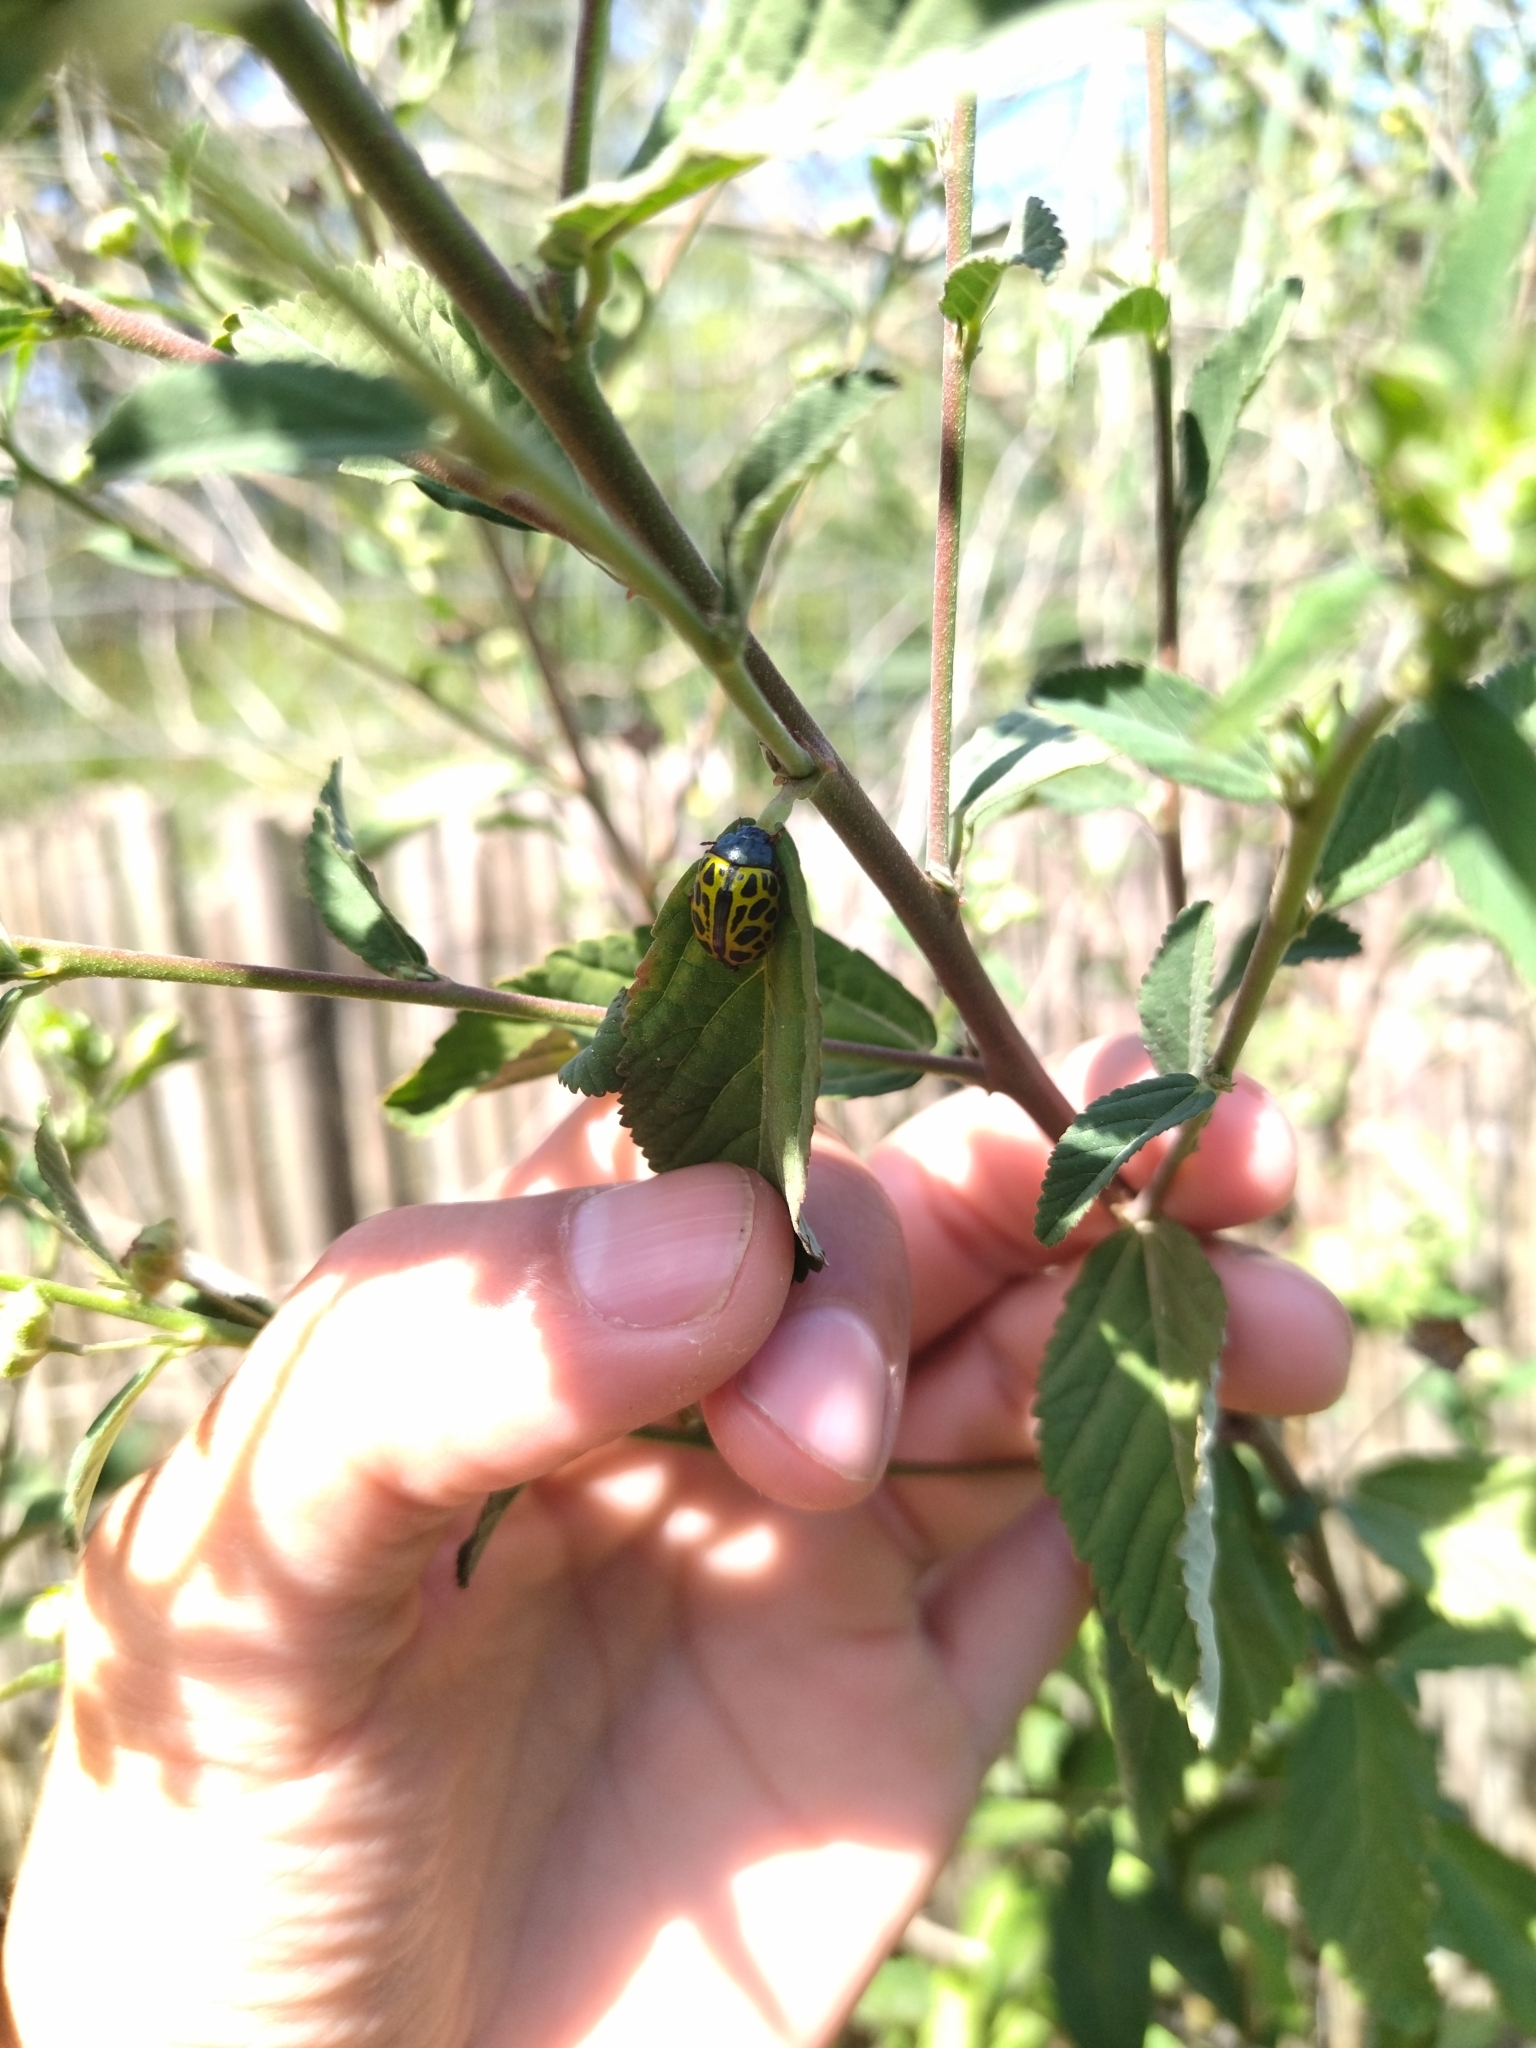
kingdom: Animalia
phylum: Arthropoda
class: Insecta
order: Coleoptera
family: Chrysomelidae
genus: Calligrapha
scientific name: Calligrapha polyspila
